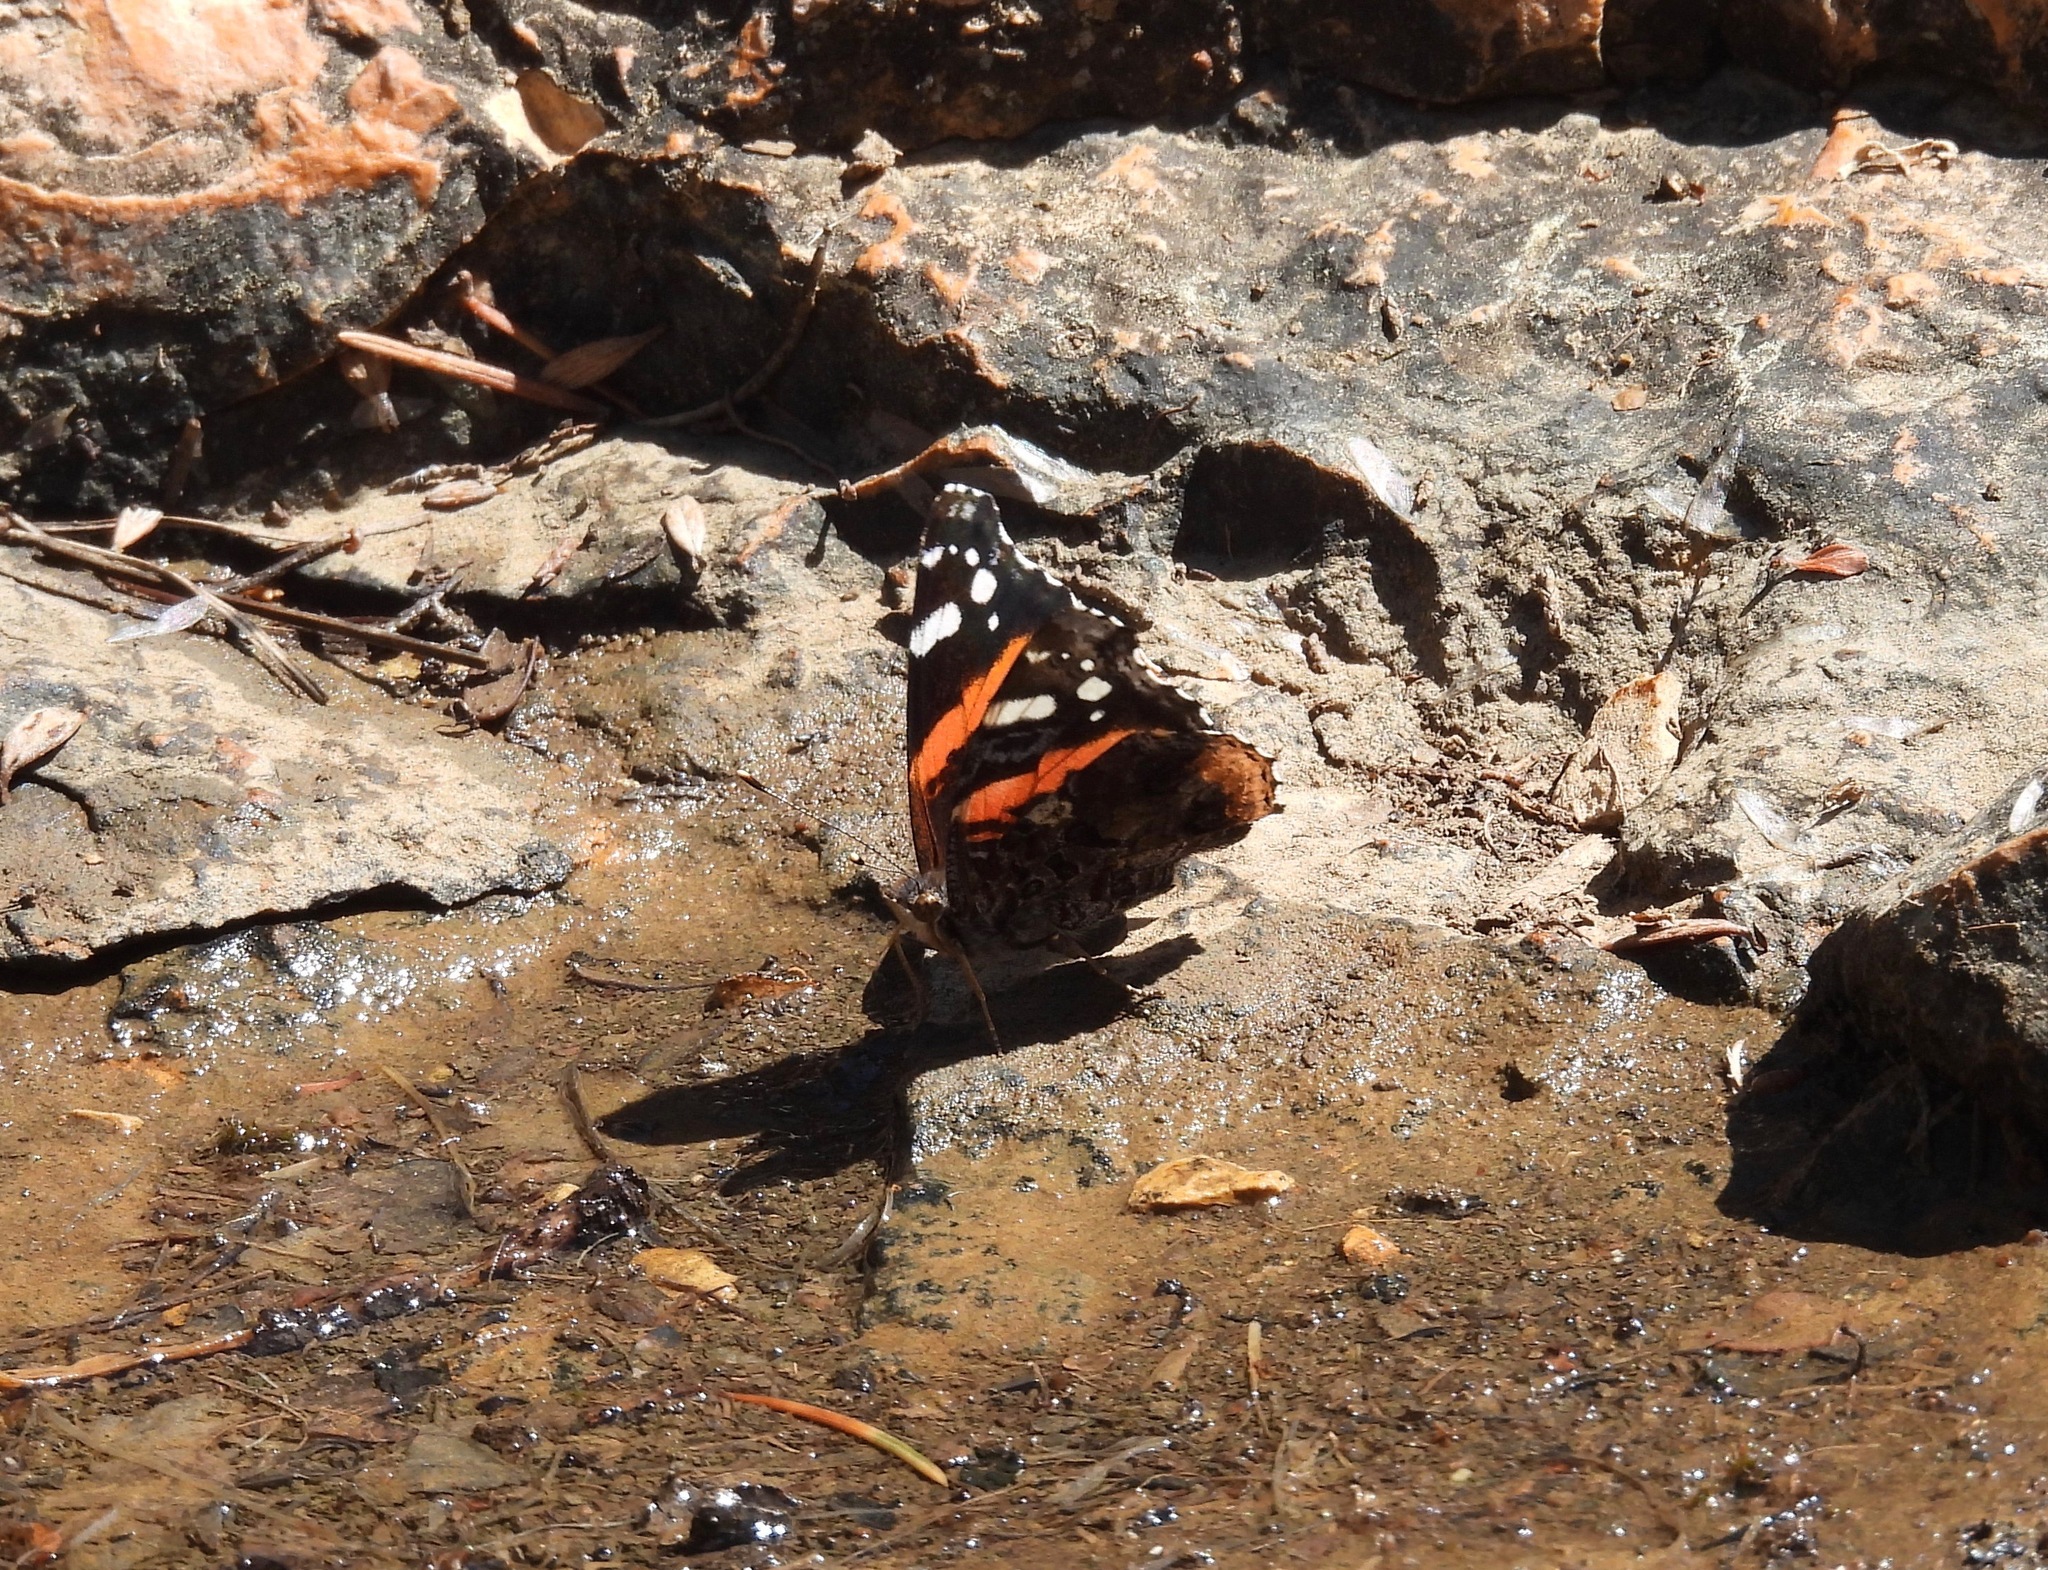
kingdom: Animalia
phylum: Arthropoda
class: Insecta
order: Lepidoptera
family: Nymphalidae
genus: Vanessa
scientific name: Vanessa atalanta
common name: Red admiral
